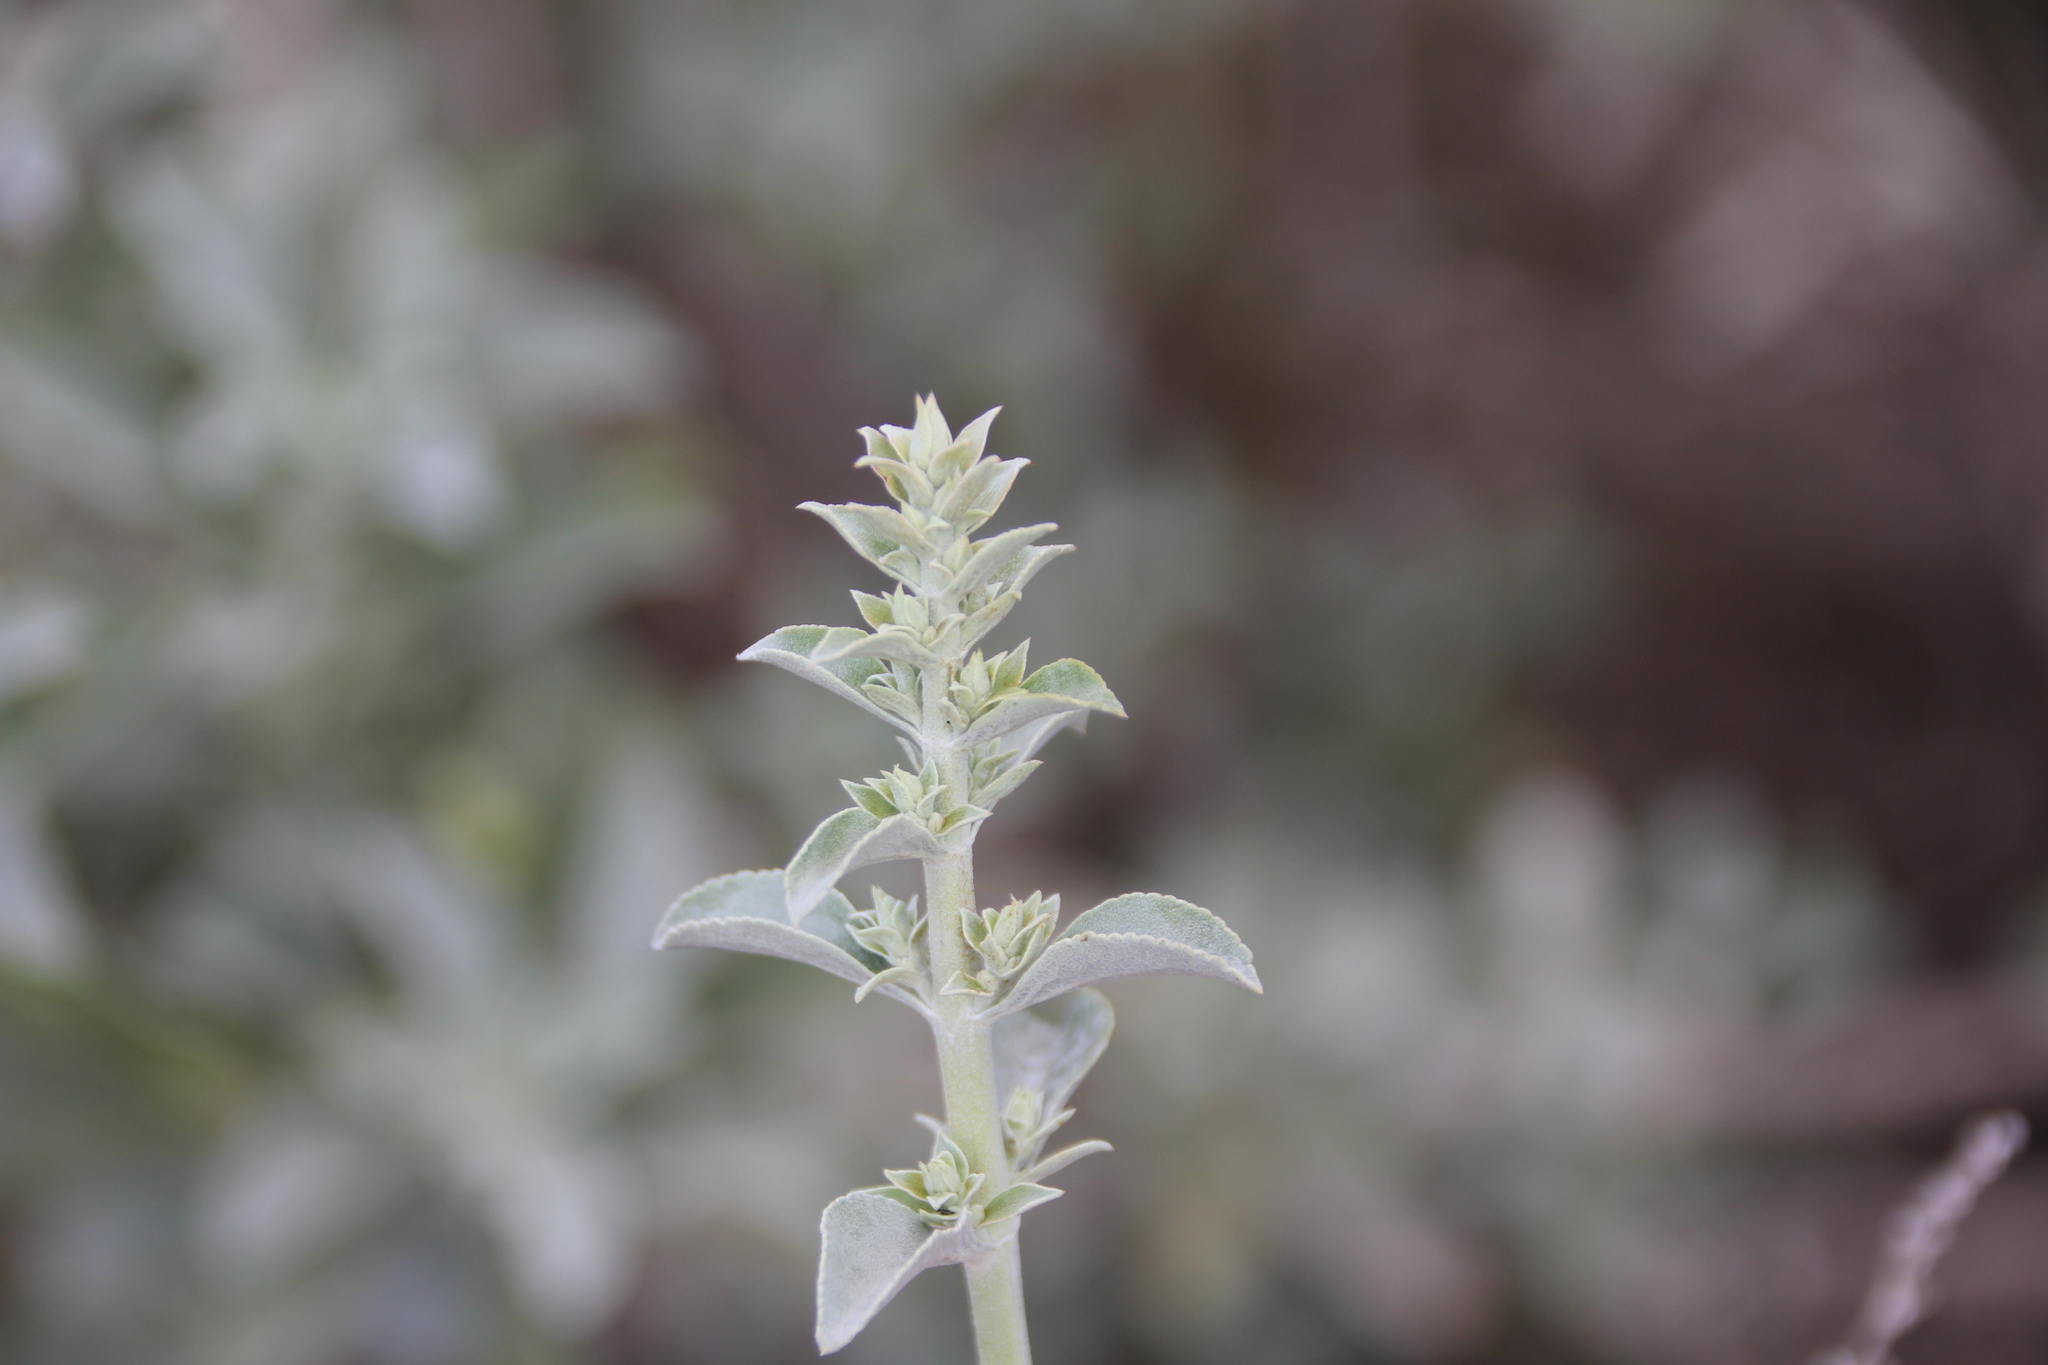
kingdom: Plantae
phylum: Tracheophyta
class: Magnoliopsida
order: Lamiales
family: Lamiaceae
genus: Salvia
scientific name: Salvia apiana
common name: White sage
